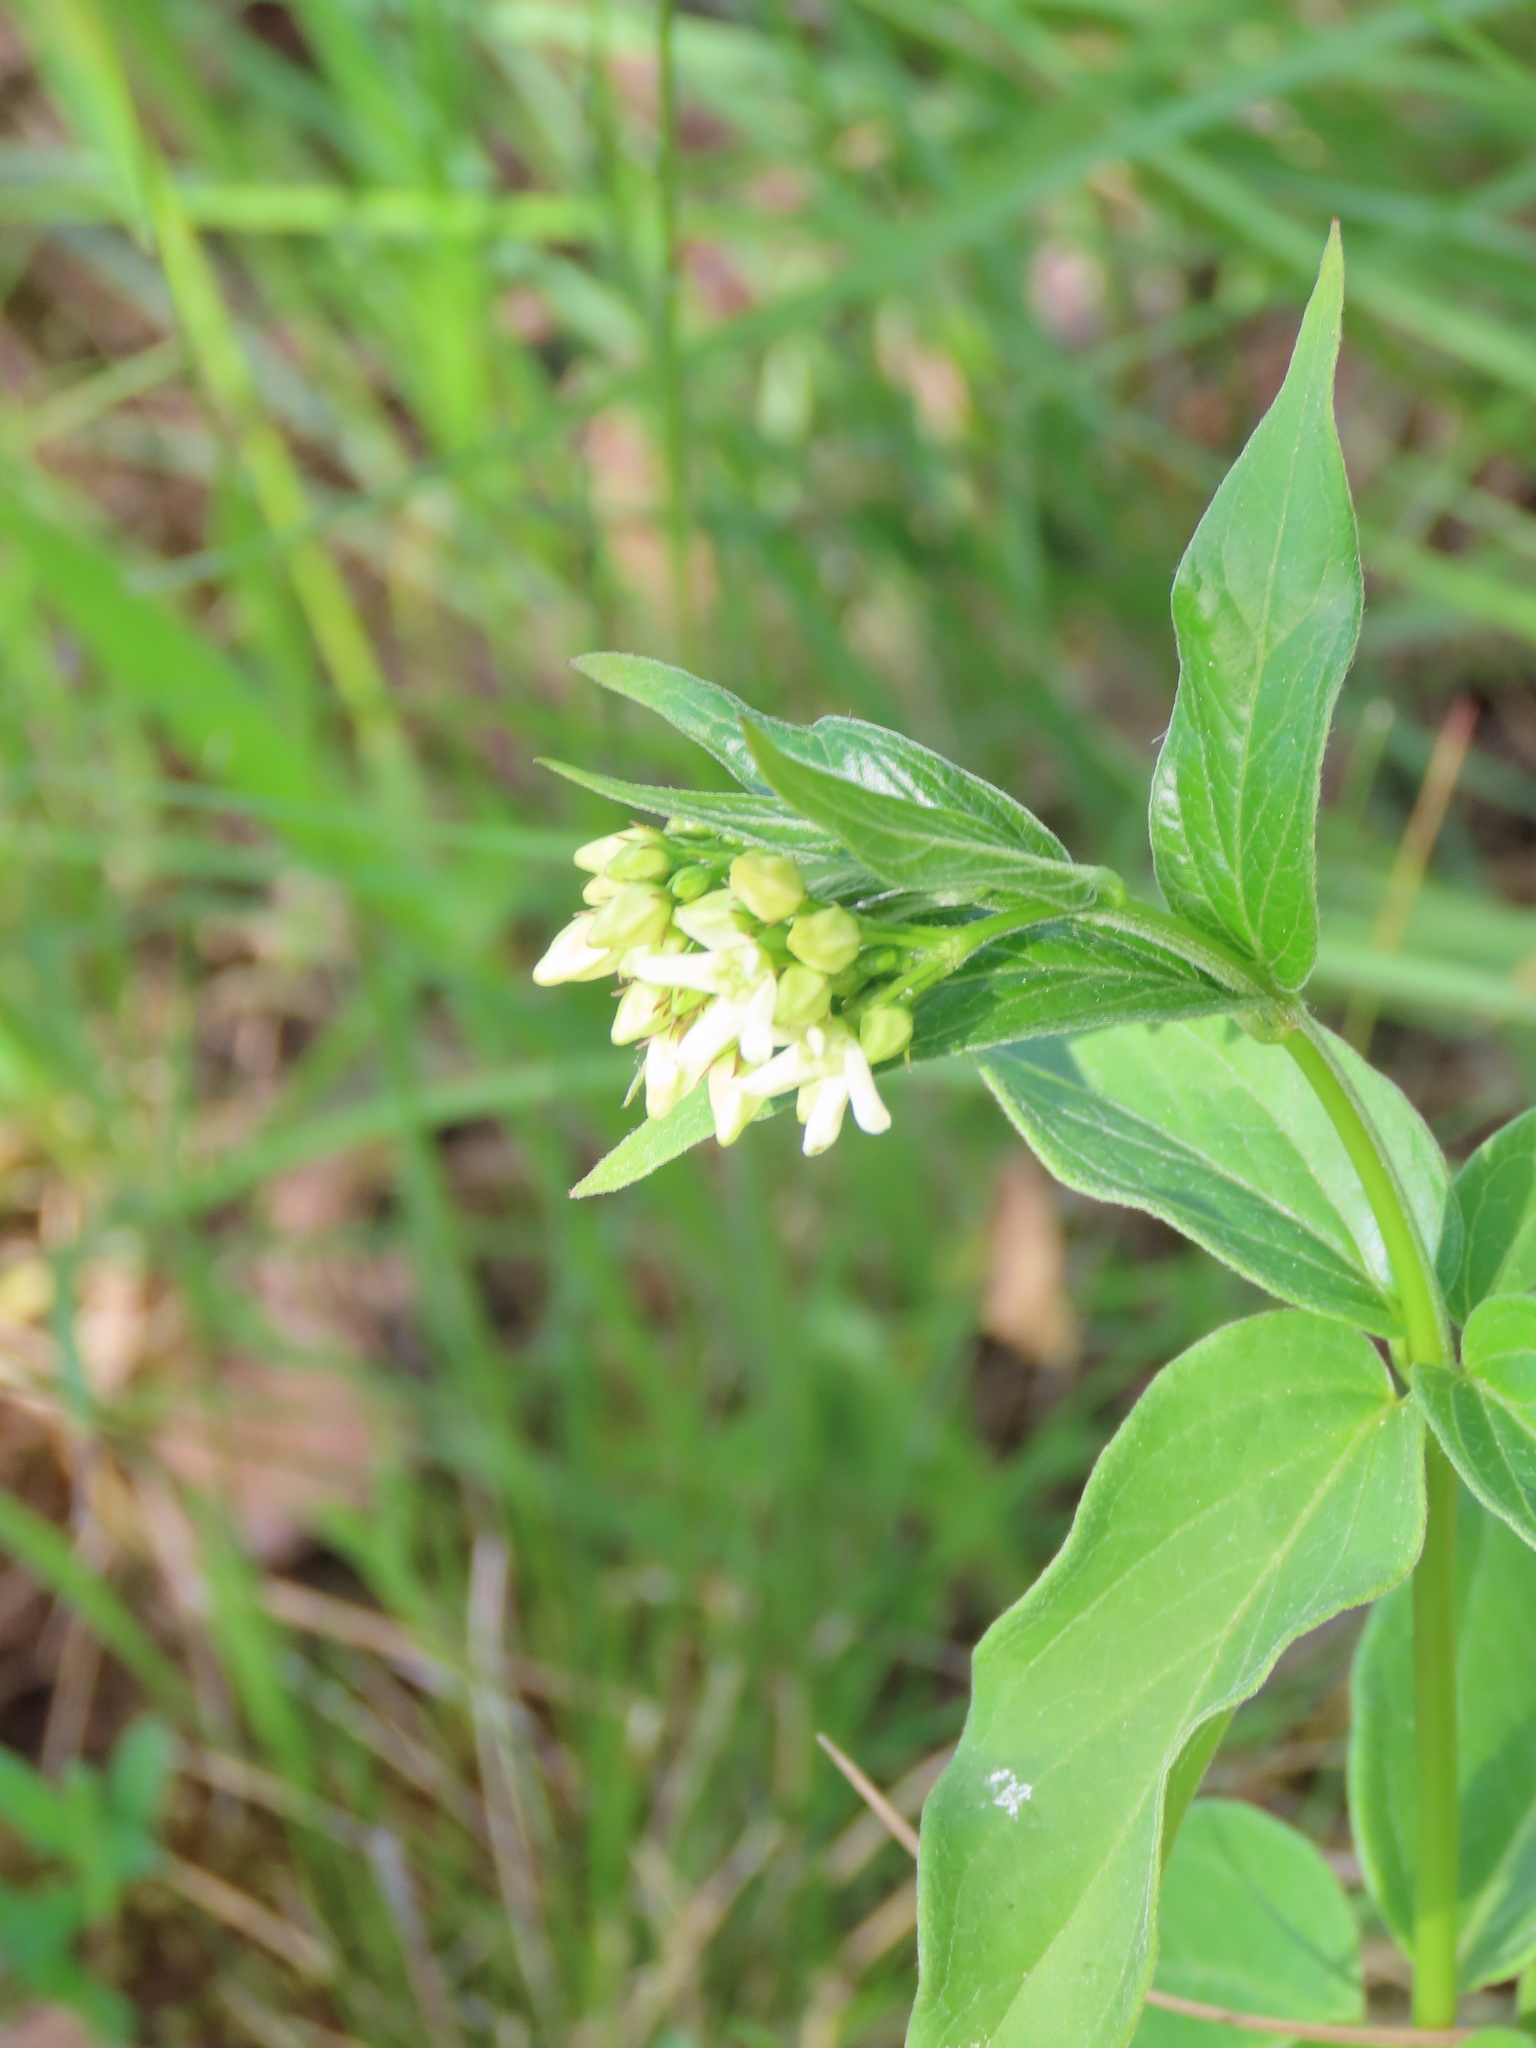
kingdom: Plantae
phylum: Tracheophyta
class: Magnoliopsida
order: Gentianales
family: Apocynaceae
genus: Vincetoxicum
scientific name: Vincetoxicum hirundinaria
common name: White swallowwort
